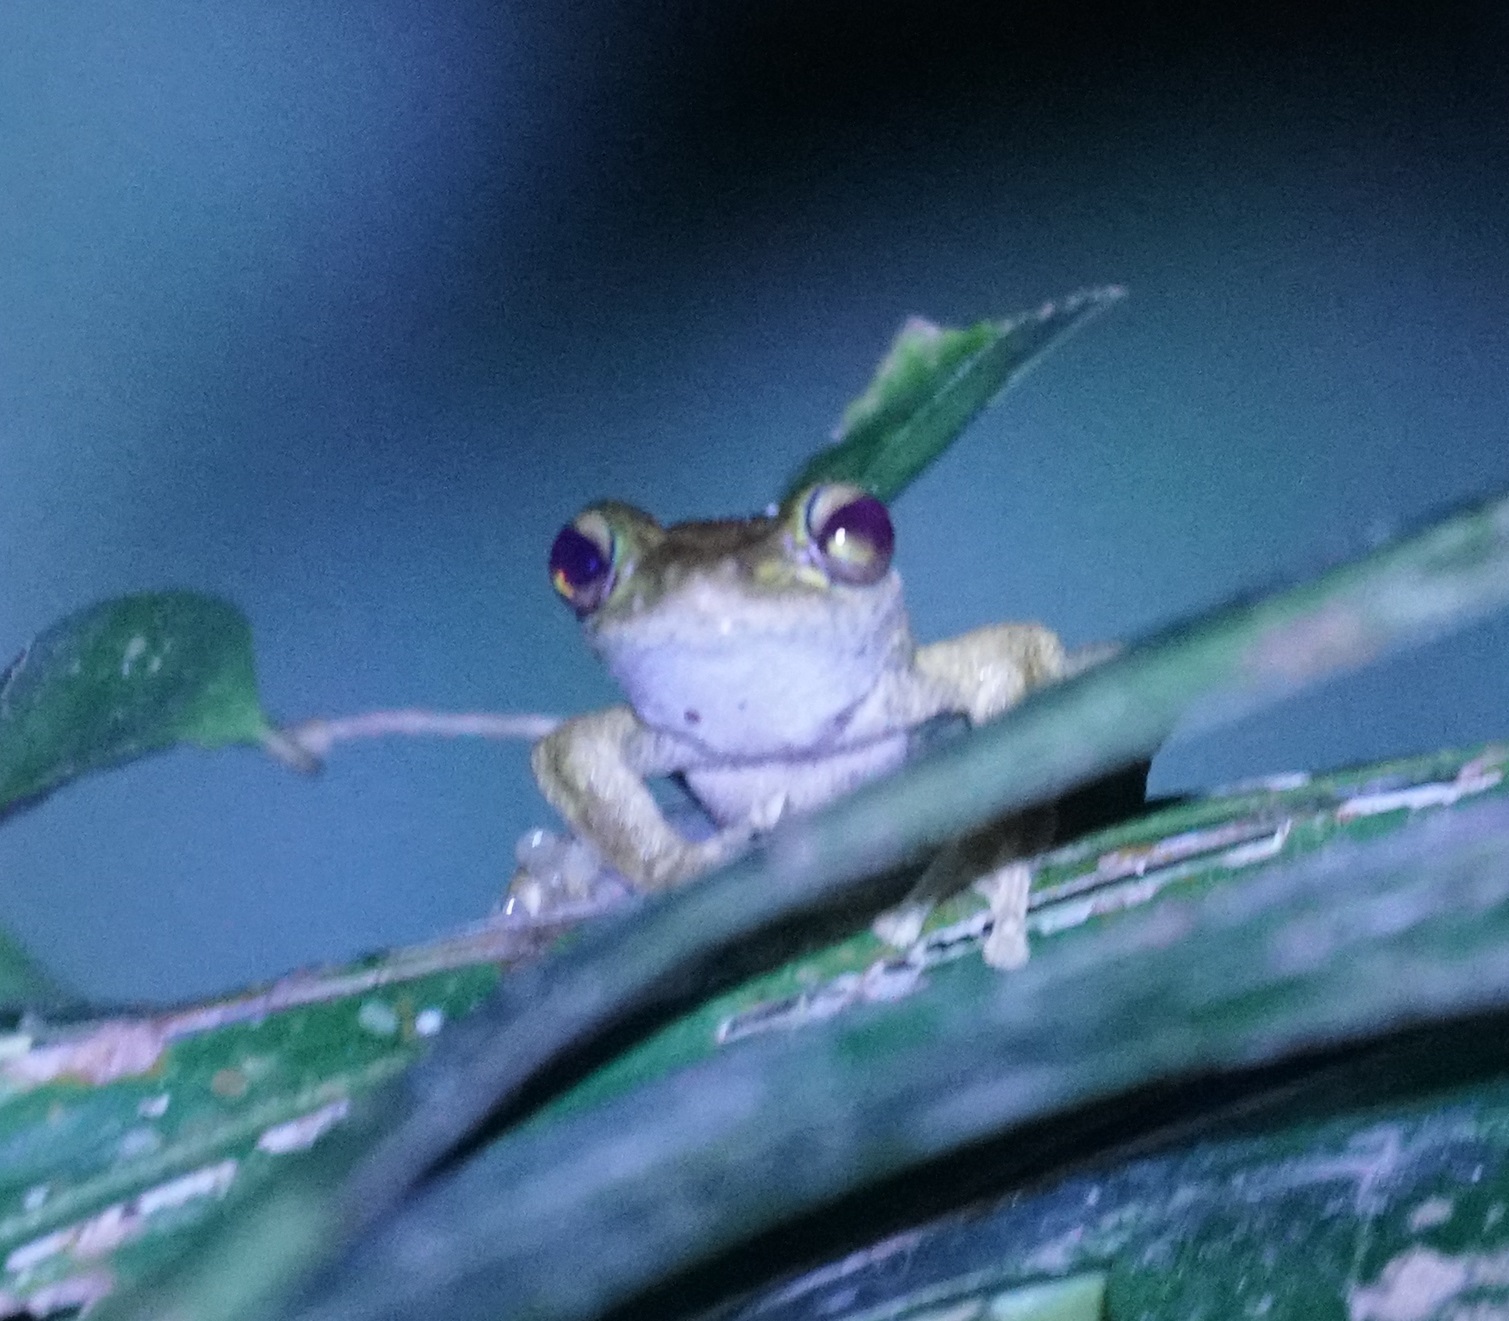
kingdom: Animalia
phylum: Chordata
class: Amphibia
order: Anura
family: Hylidae
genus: Ranoidea
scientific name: Ranoidea
